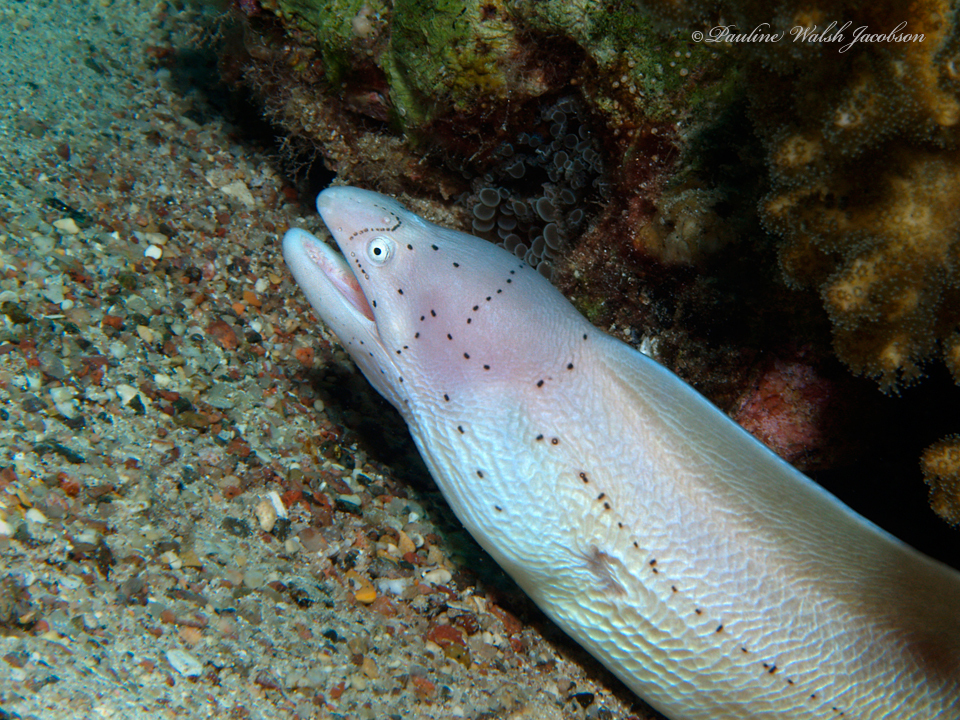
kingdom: Animalia
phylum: Chordata
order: Anguilliformes
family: Muraenidae
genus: Gymnothorax
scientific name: Gymnothorax griseus
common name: Geometric moray
